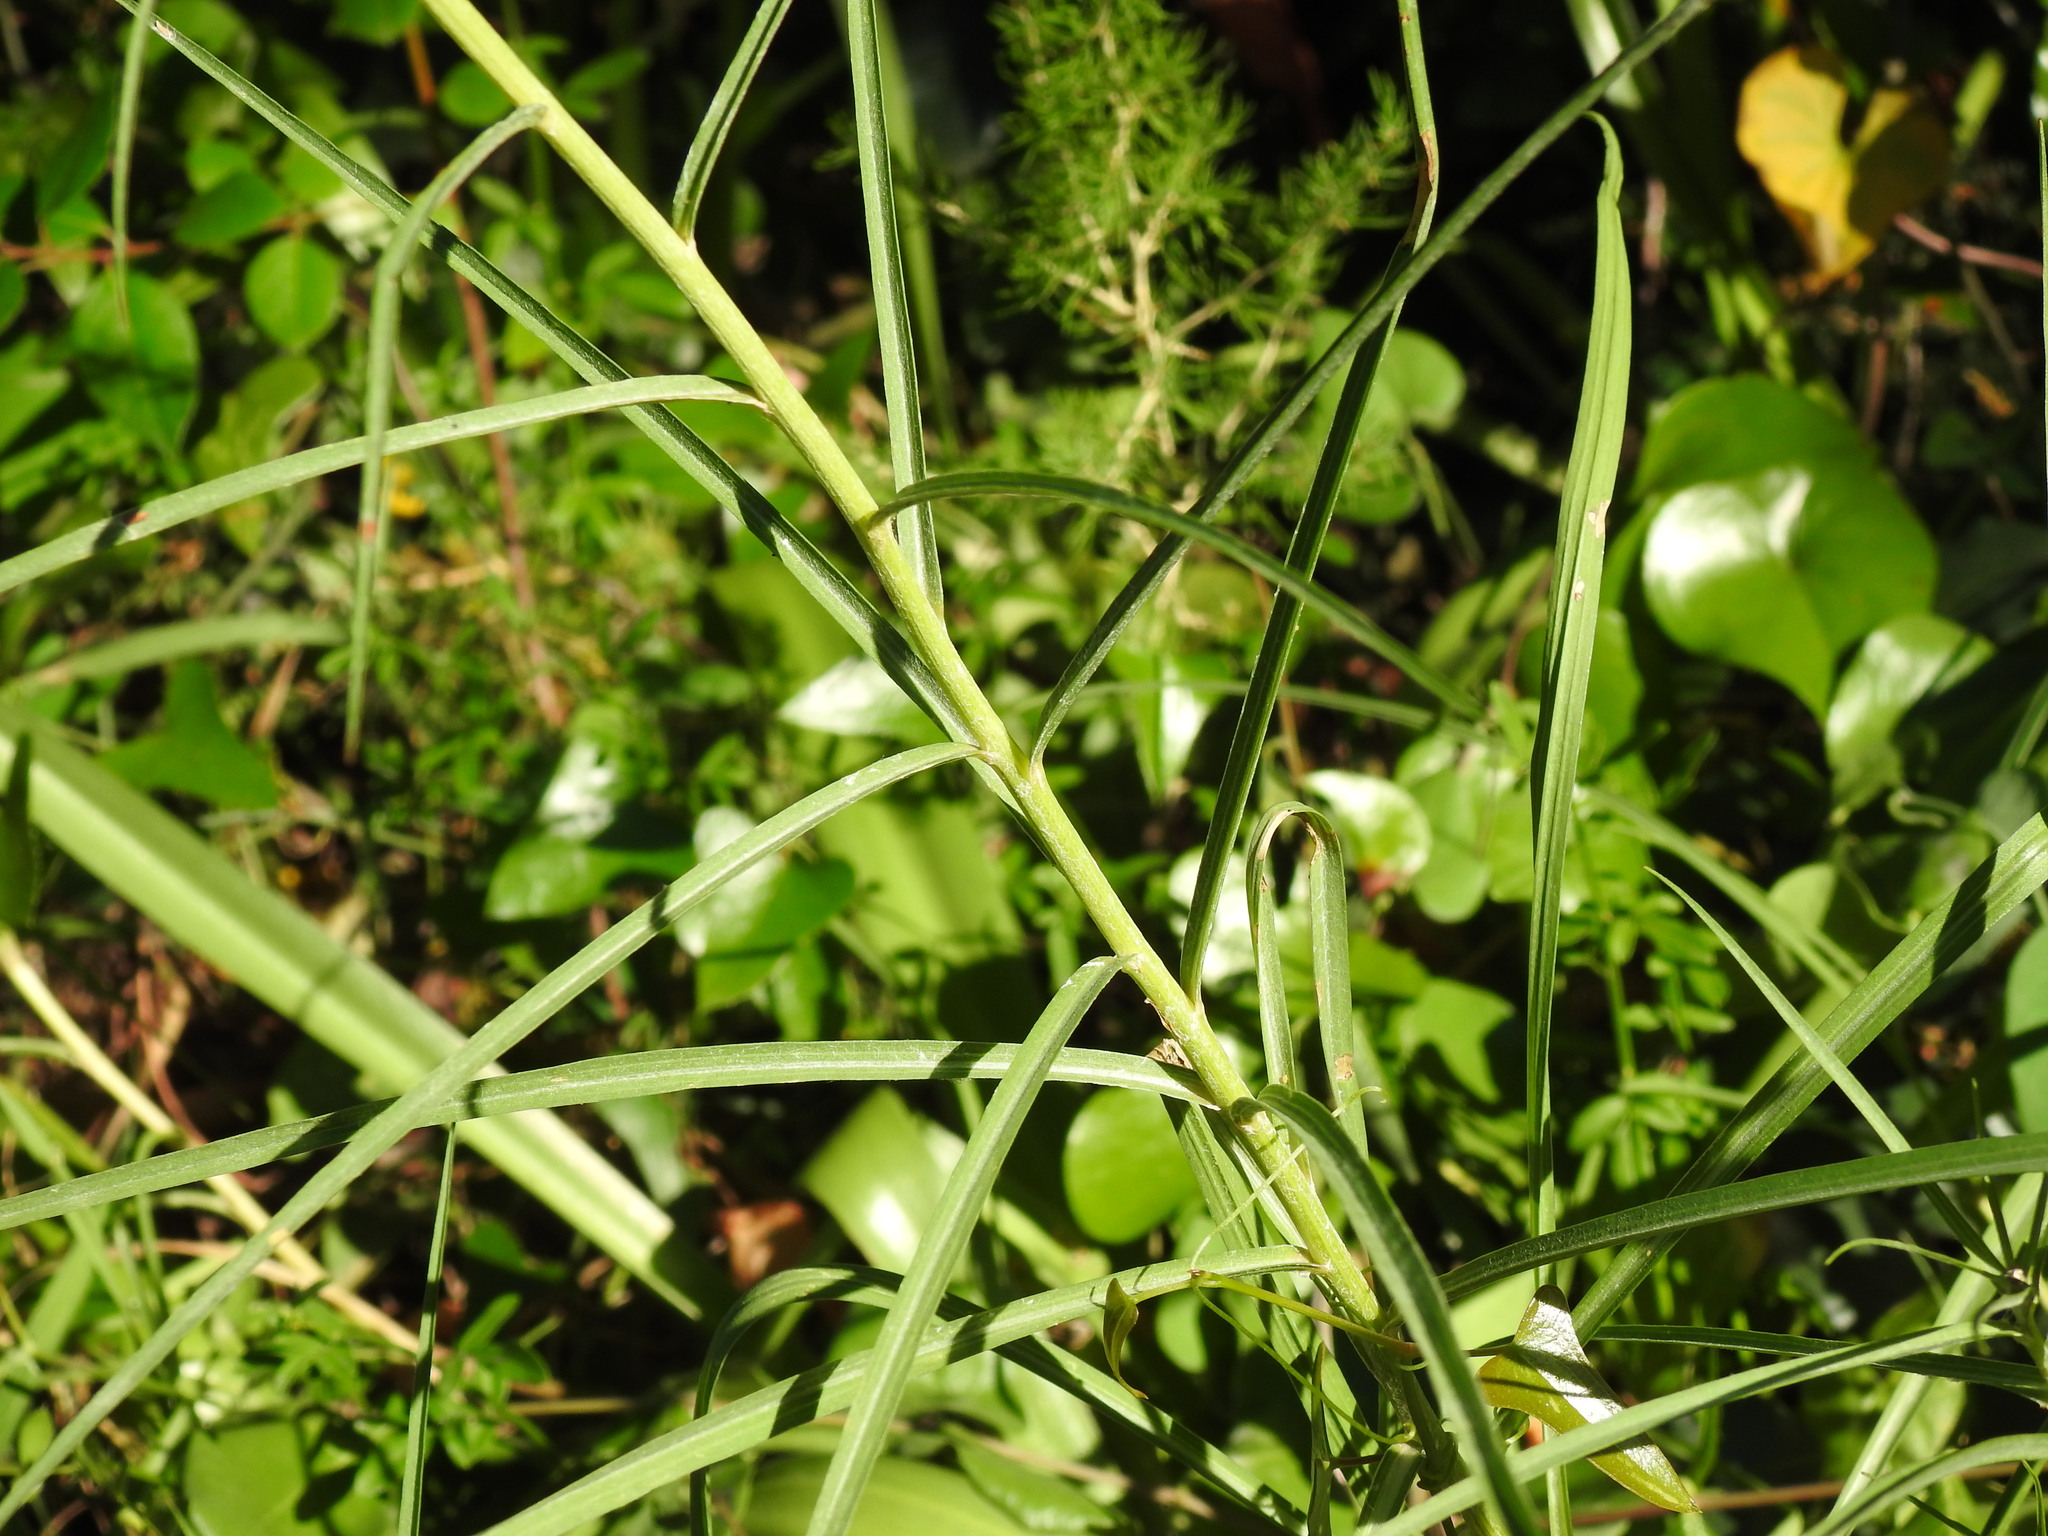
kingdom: Plantae
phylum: Tracheophyta
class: Magnoliopsida
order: Asterales
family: Asteraceae
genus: Scorzonera
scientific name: Scorzonera angustifolia
